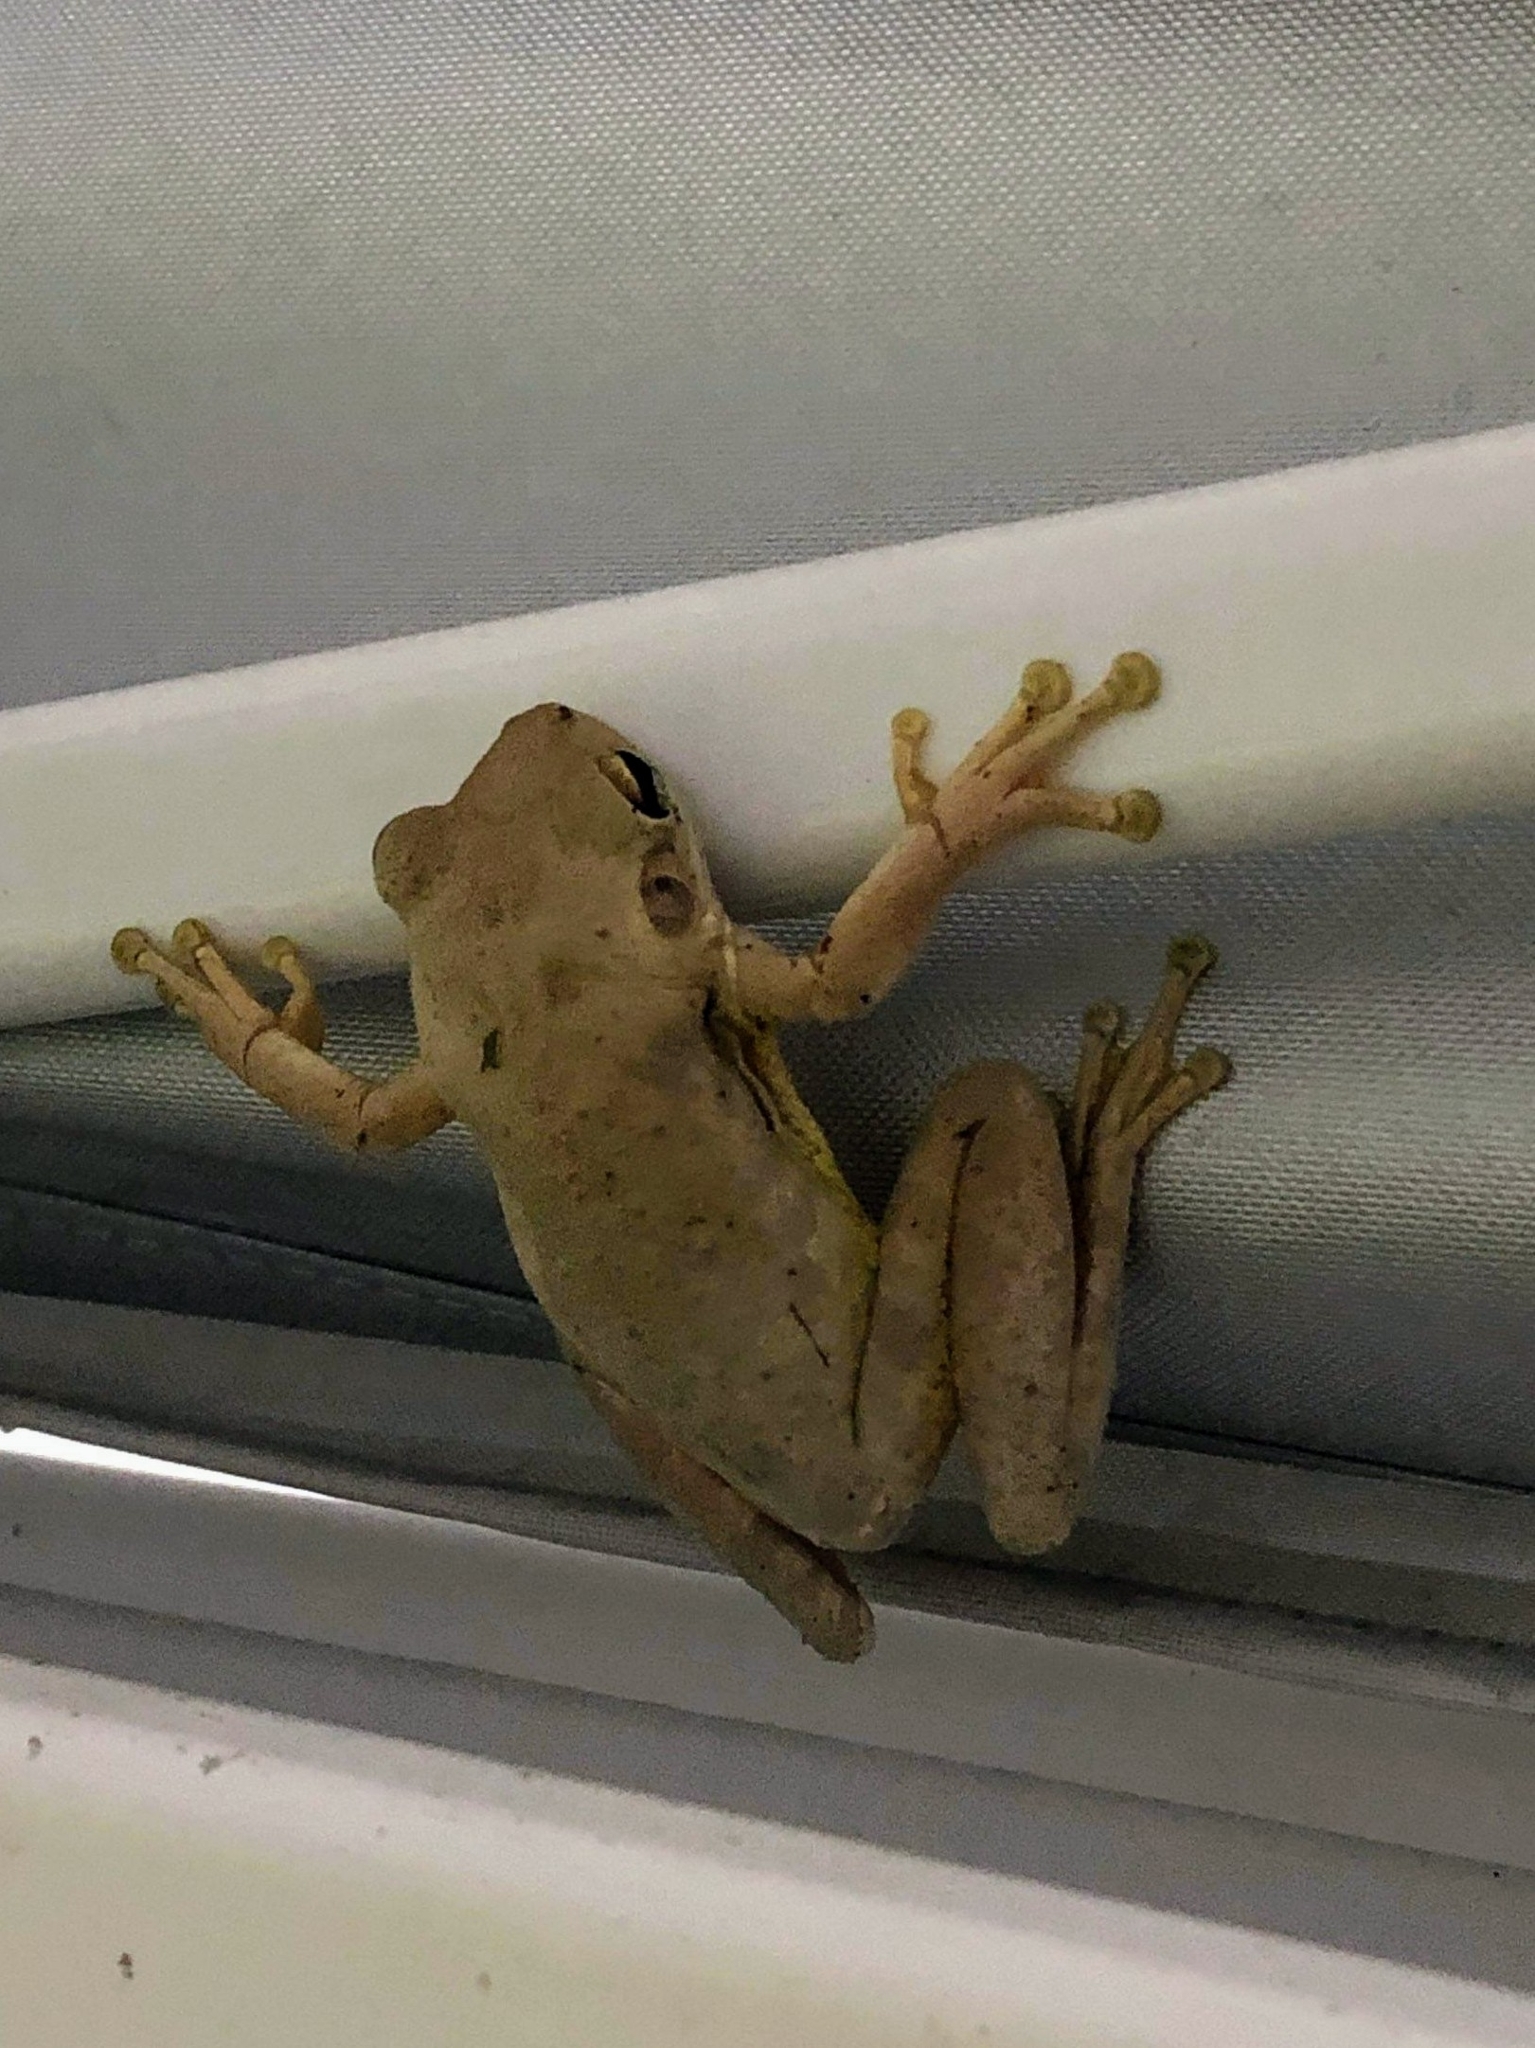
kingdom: Animalia
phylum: Chordata
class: Amphibia
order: Anura
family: Hylidae
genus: Osteopilus
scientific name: Osteopilus septentrionalis
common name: Cuban treefrog
